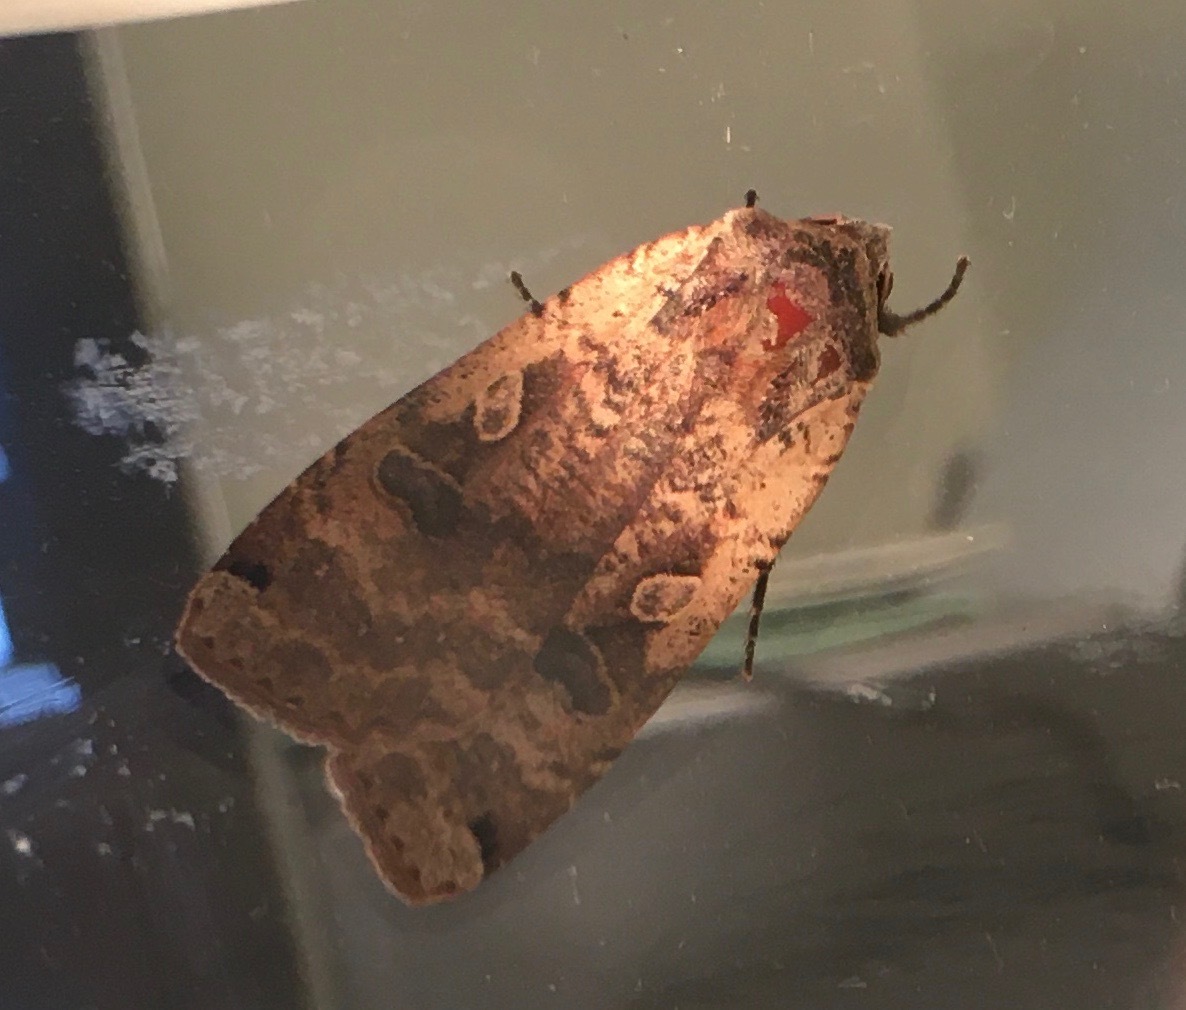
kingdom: Animalia
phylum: Arthropoda
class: Insecta
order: Lepidoptera
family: Noctuidae
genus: Noctua
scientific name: Noctua pronuba
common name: Large yellow underwing
